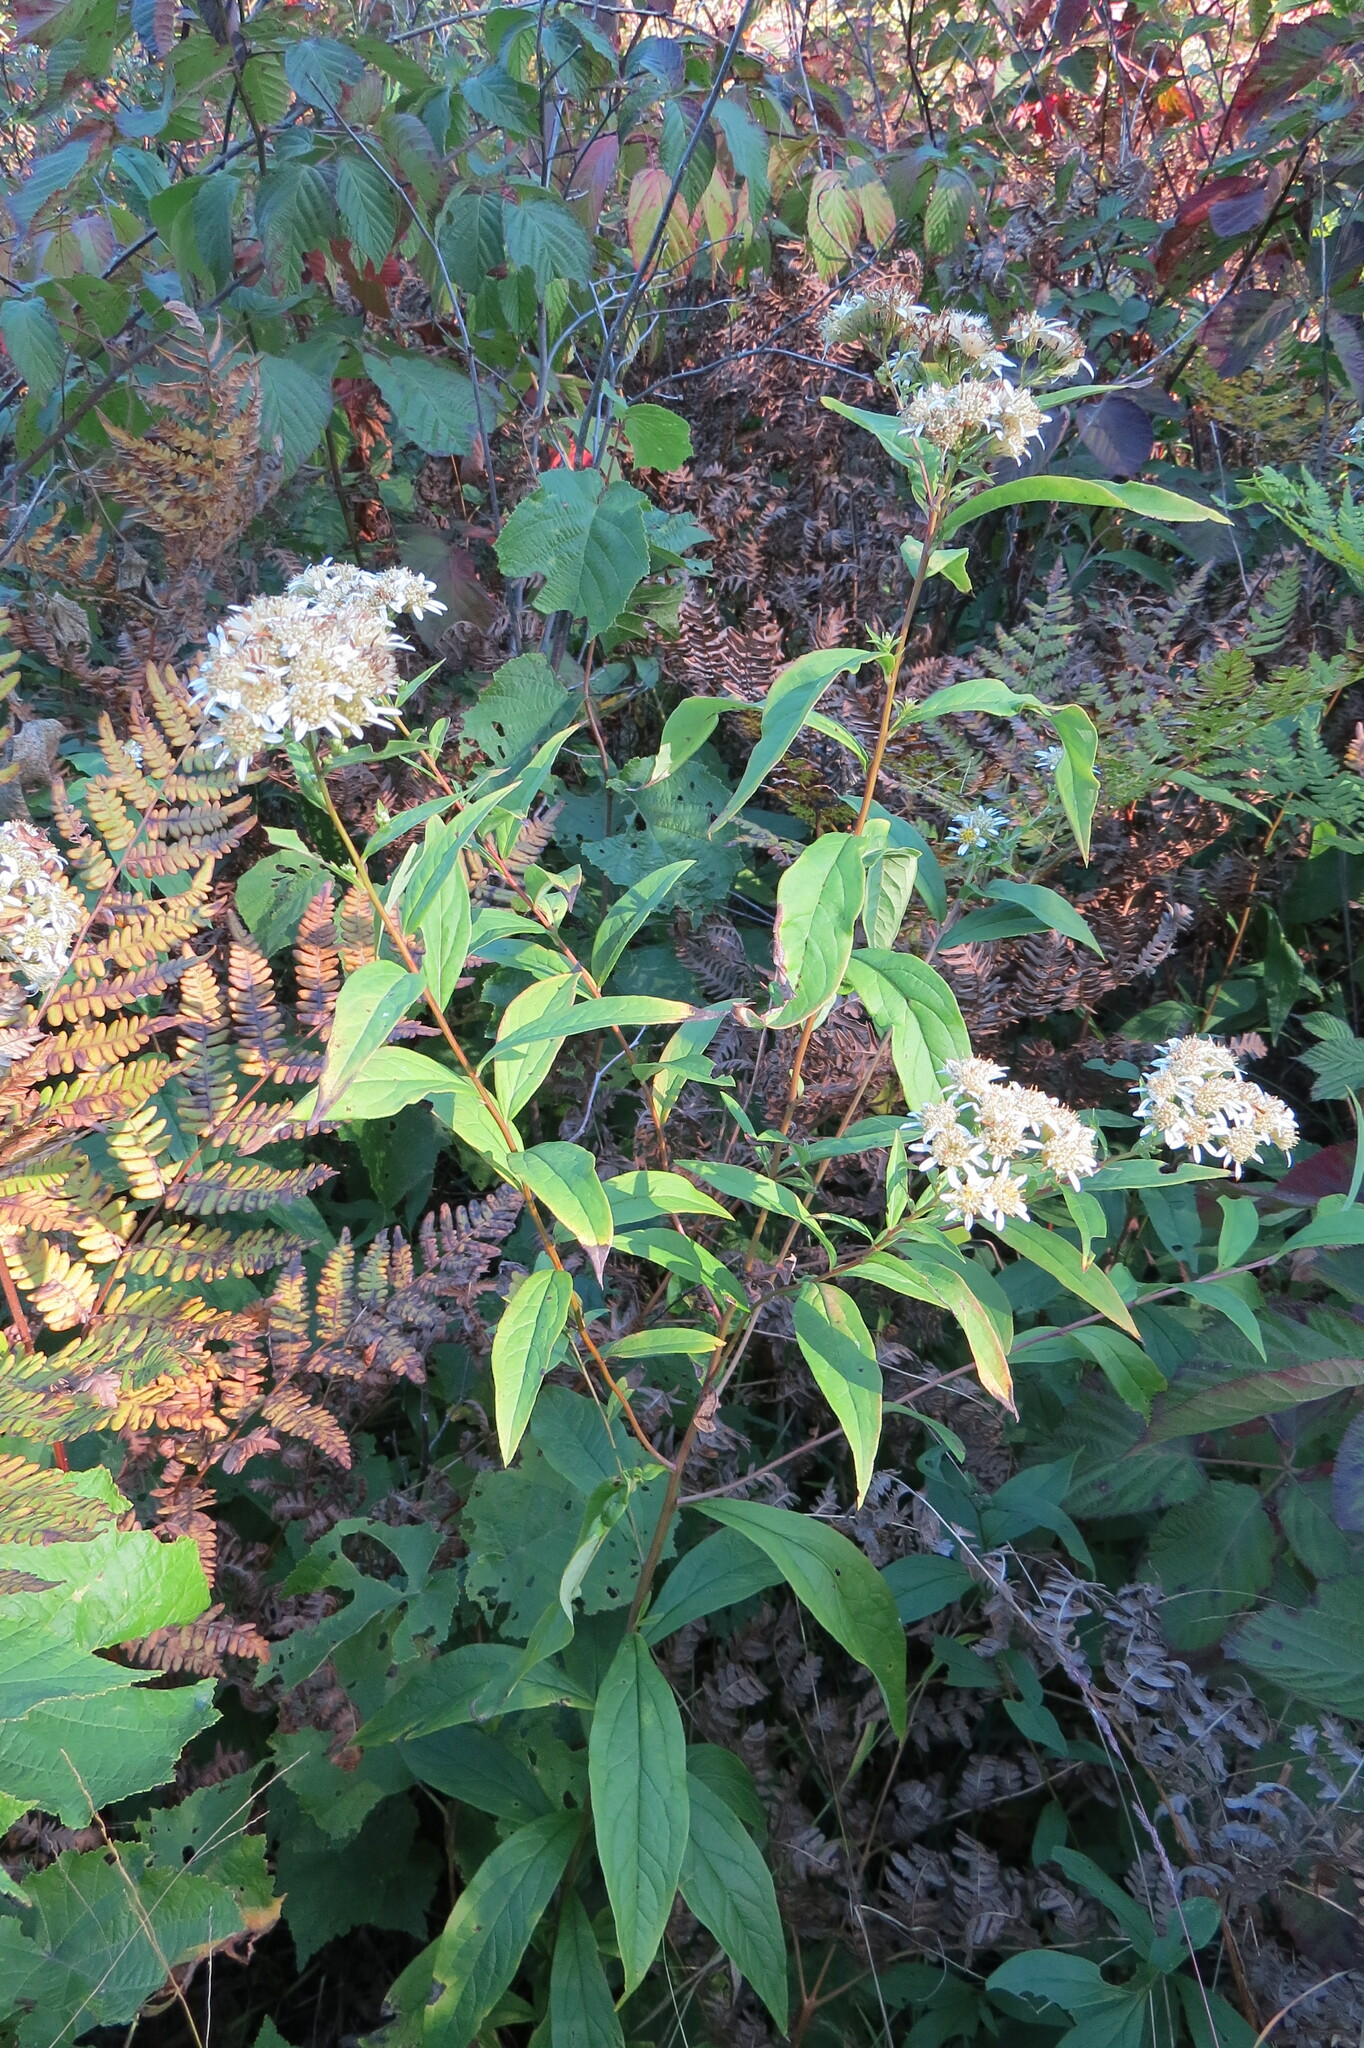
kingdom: Plantae
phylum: Tracheophyta
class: Magnoliopsida
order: Asterales
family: Asteraceae
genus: Doellingeria
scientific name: Doellingeria umbellata
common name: Flat-top white aster
